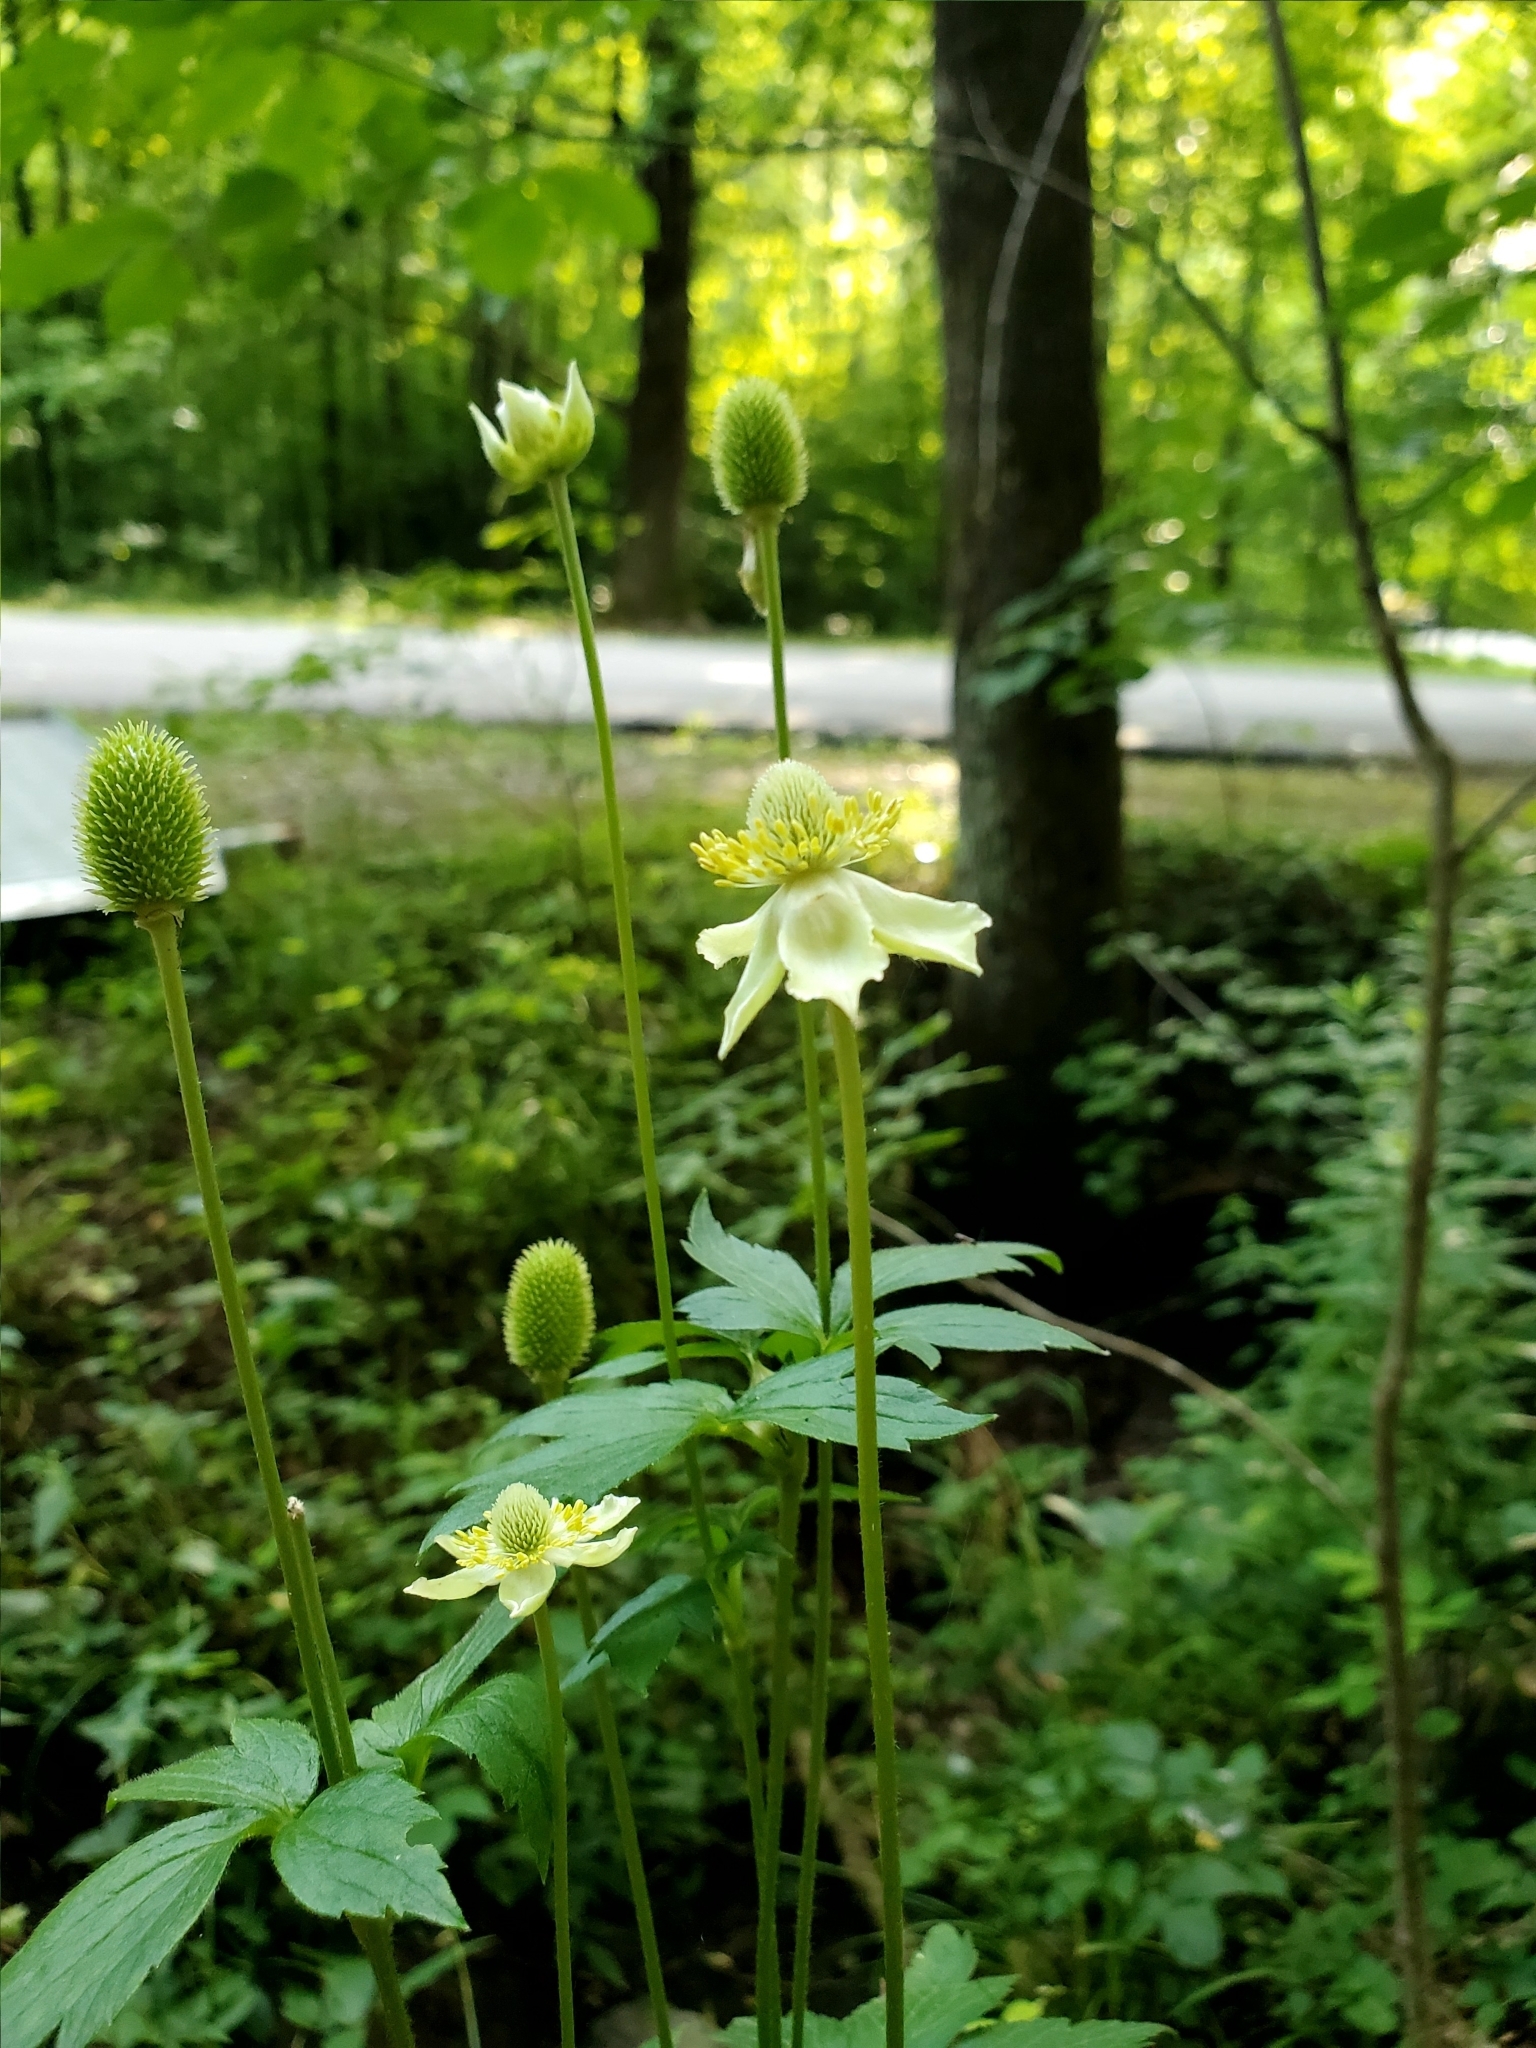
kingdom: Plantae
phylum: Tracheophyta
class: Magnoliopsida
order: Ranunculales
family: Ranunculaceae
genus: Anemone
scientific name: Anemone virginiana
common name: Tall anemone
